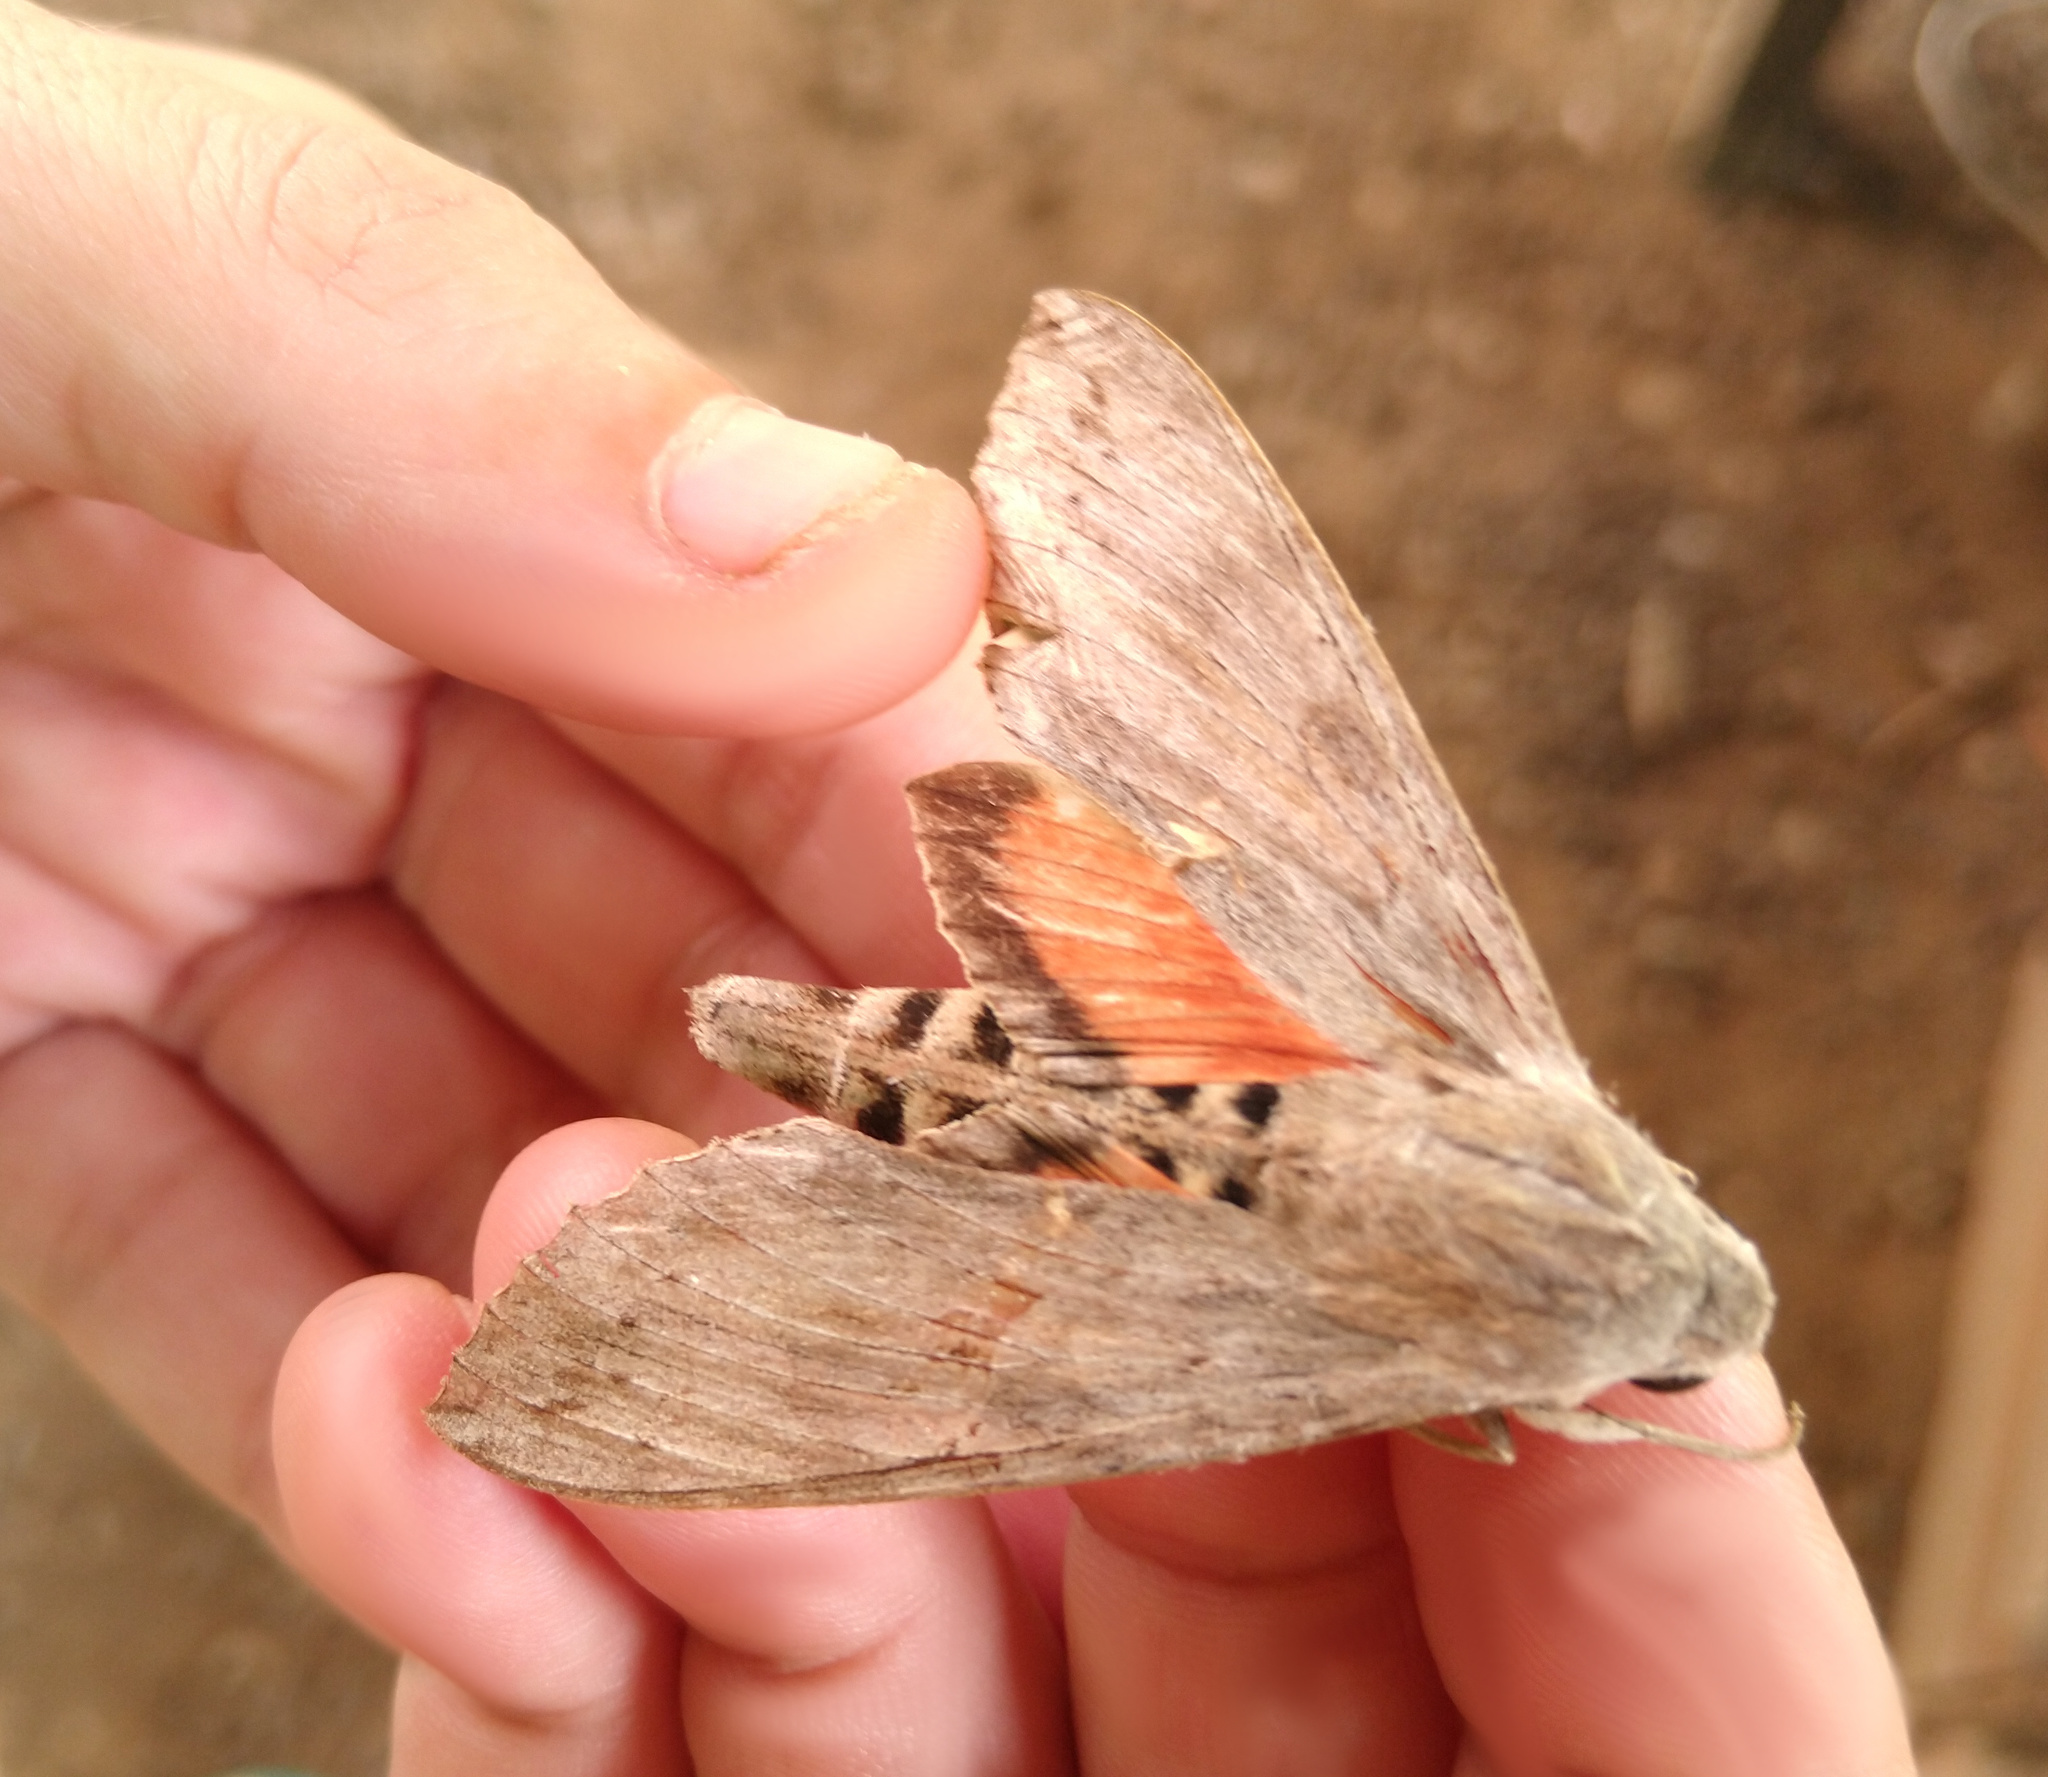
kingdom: Animalia
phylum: Arthropoda
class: Insecta
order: Lepidoptera
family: Sphingidae
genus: Erinnyis
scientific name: Erinnyis ello
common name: Ello sphinx
